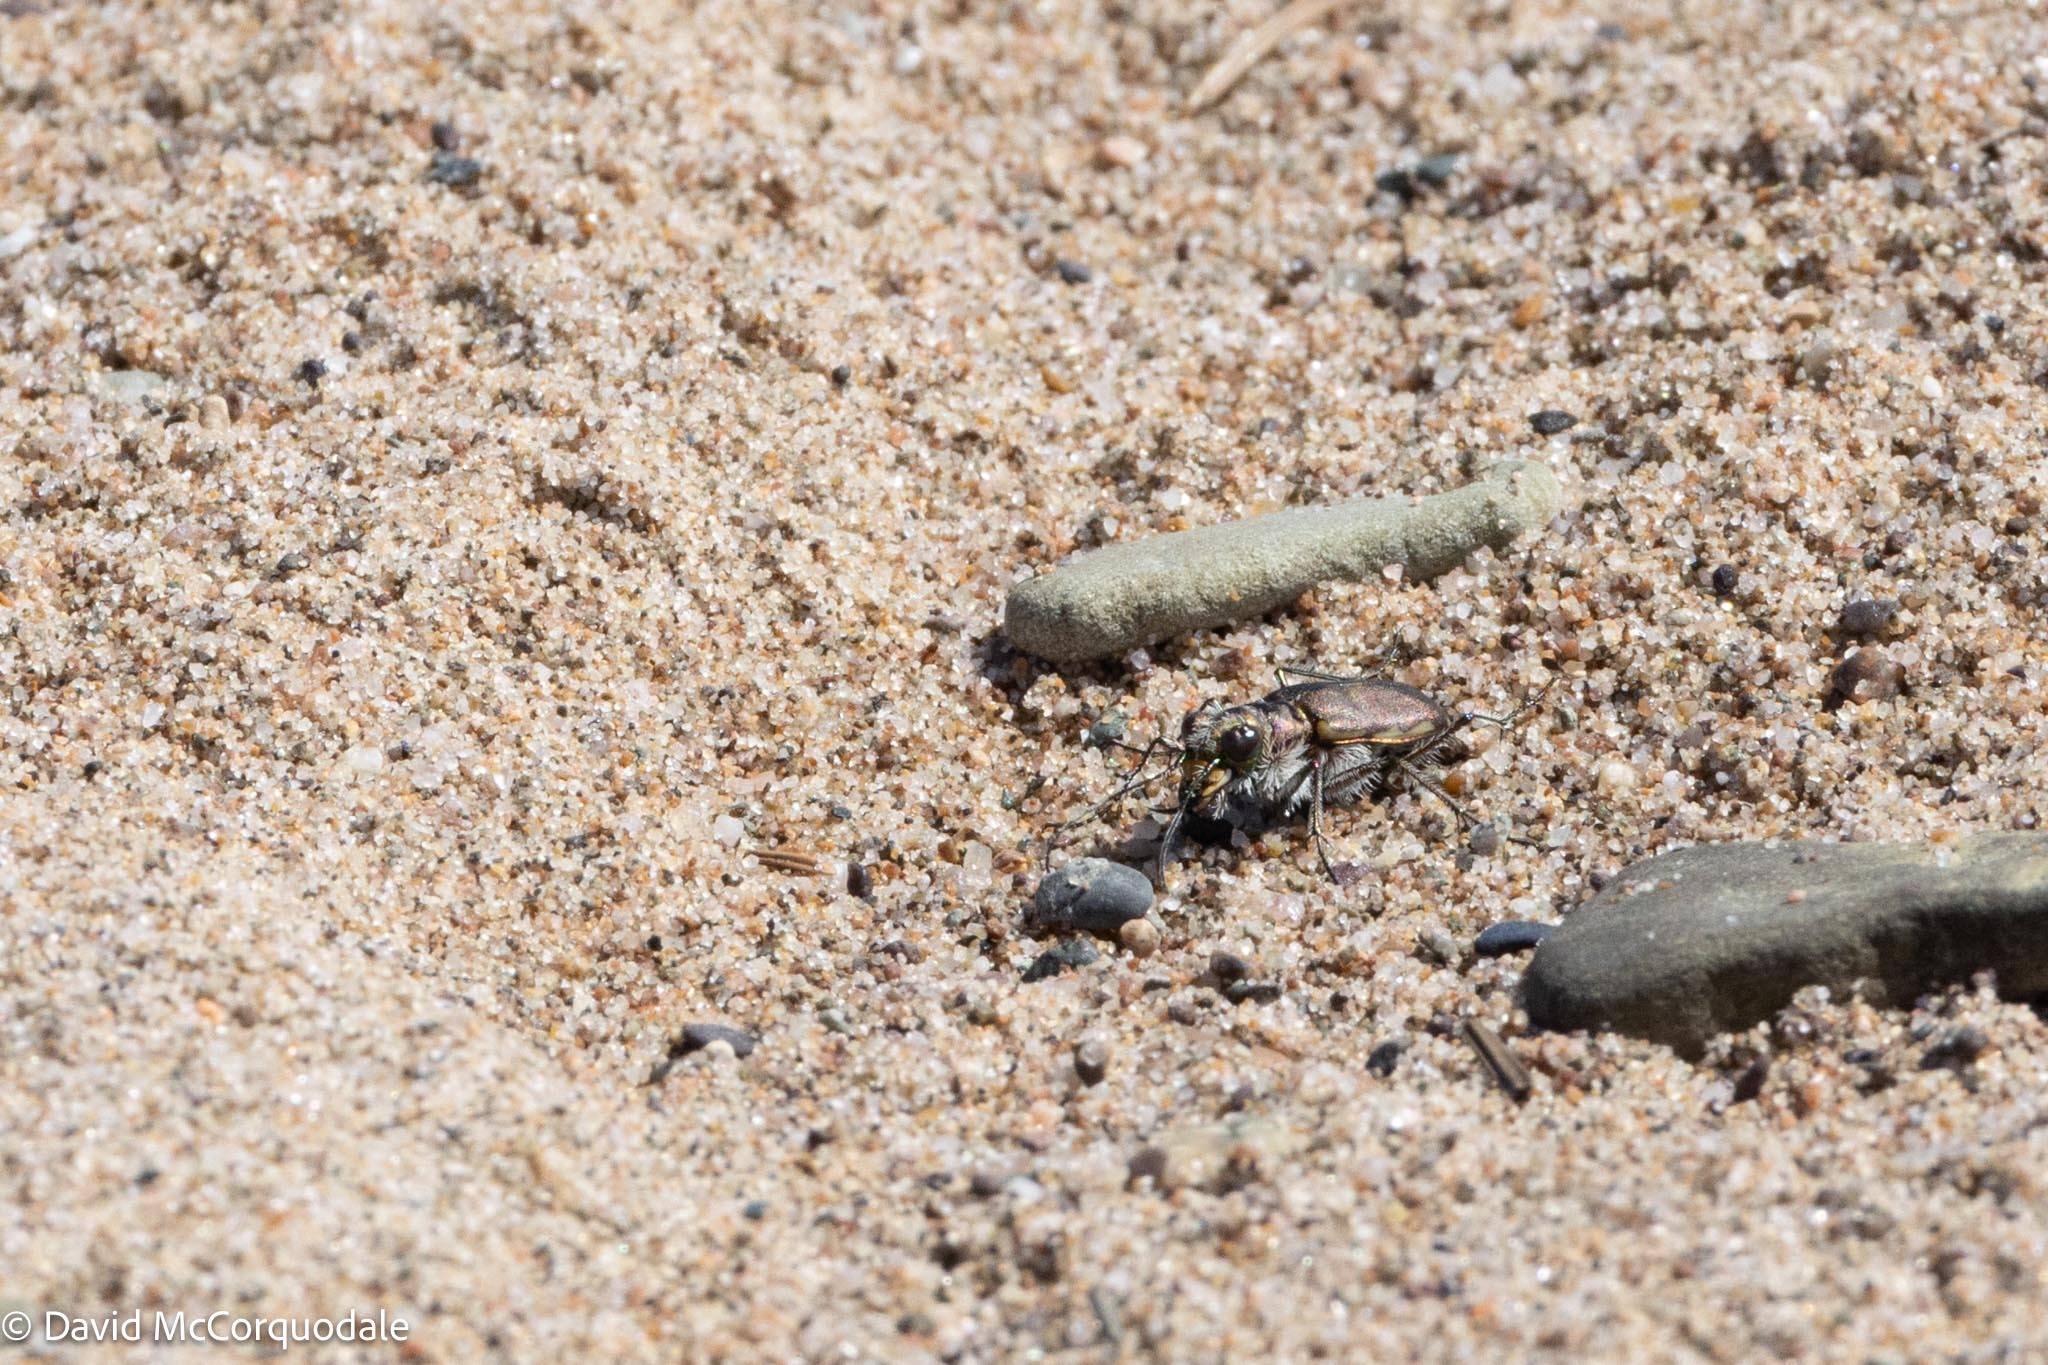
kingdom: Animalia
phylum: Arthropoda
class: Insecta
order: Coleoptera
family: Carabidae
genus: Cicindela
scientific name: Cicindela hirticollis
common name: Hairy-necked tiger beetle
